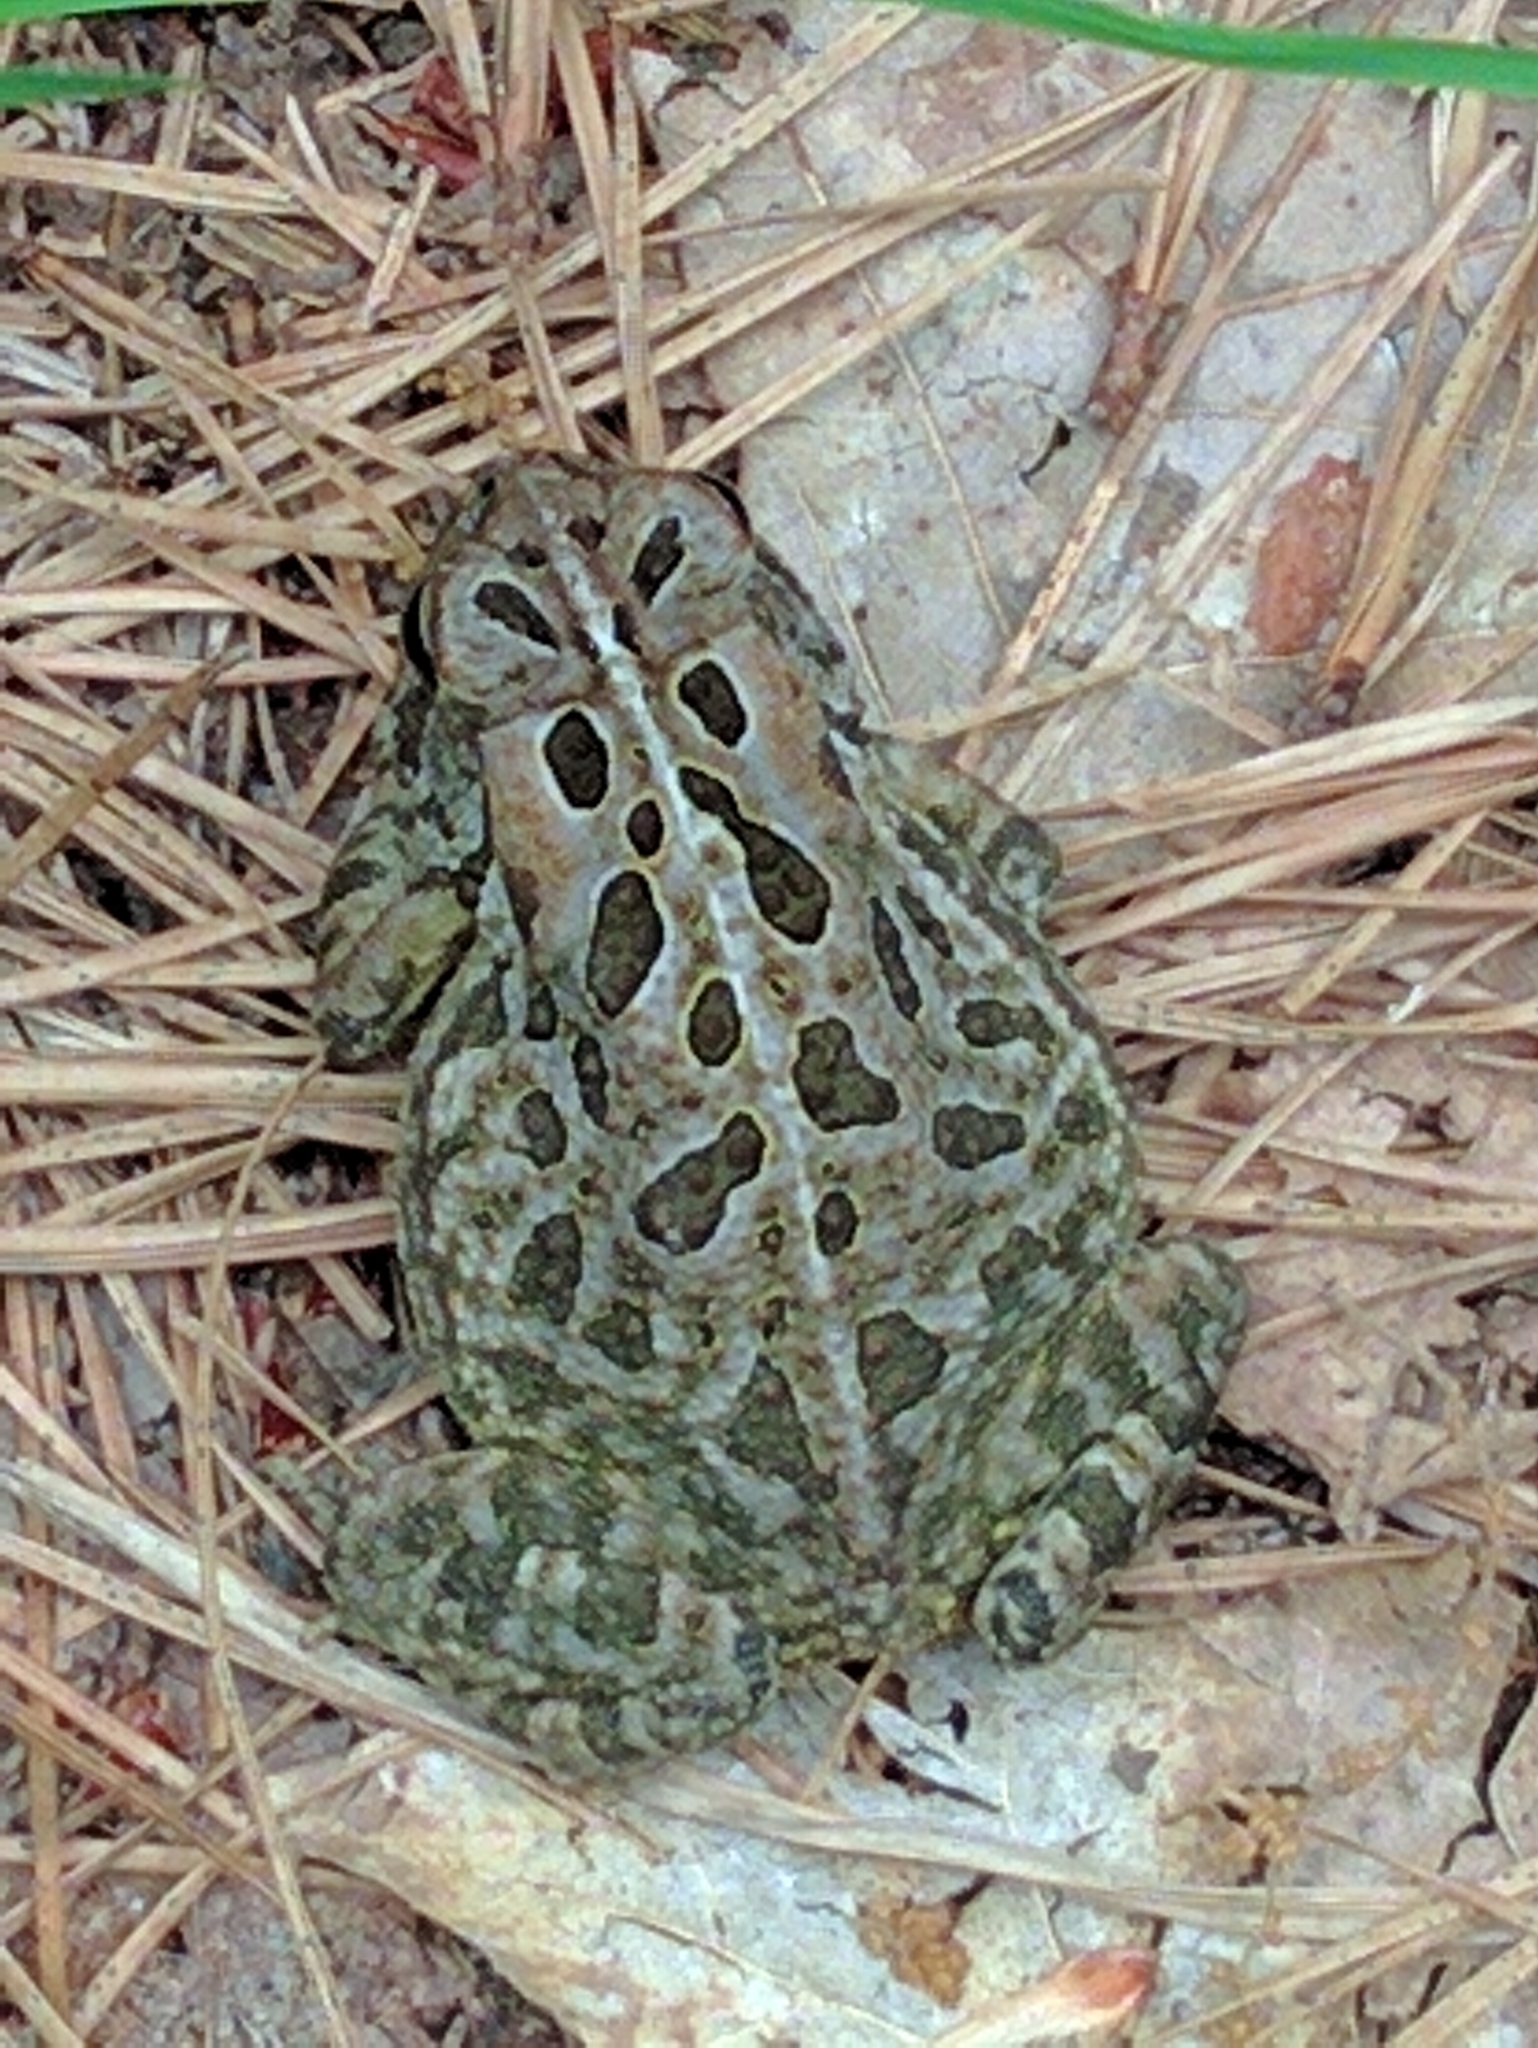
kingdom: Animalia
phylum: Chordata
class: Amphibia
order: Anura
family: Bufonidae
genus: Anaxyrus
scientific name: Anaxyrus fowleri
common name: Fowler's toad
